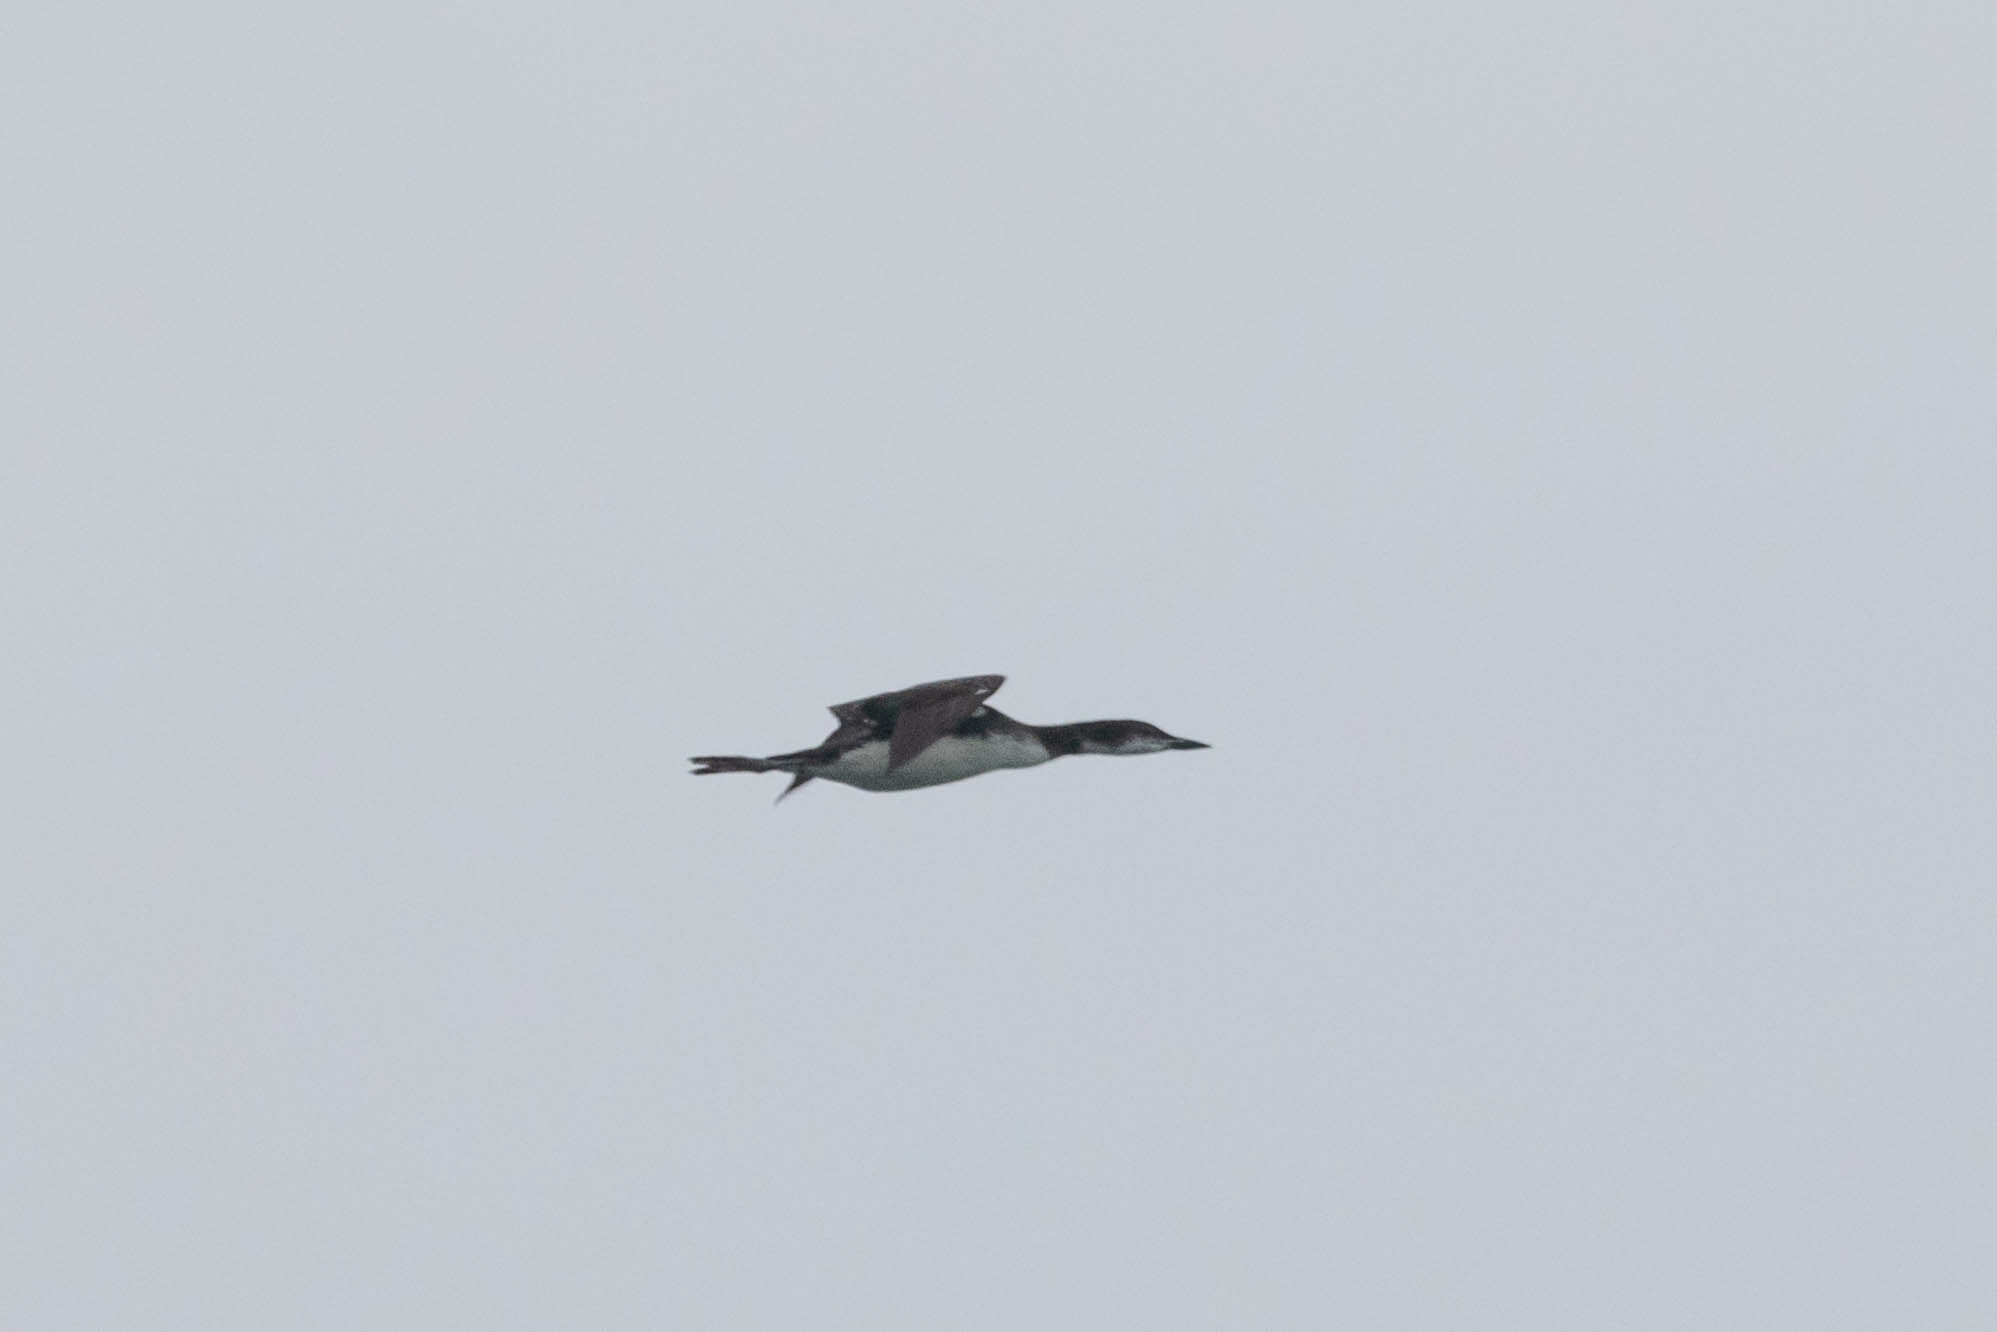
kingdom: Animalia
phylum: Chordata
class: Aves
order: Gaviiformes
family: Gaviidae
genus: Gavia
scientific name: Gavia immer
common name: Common loon
